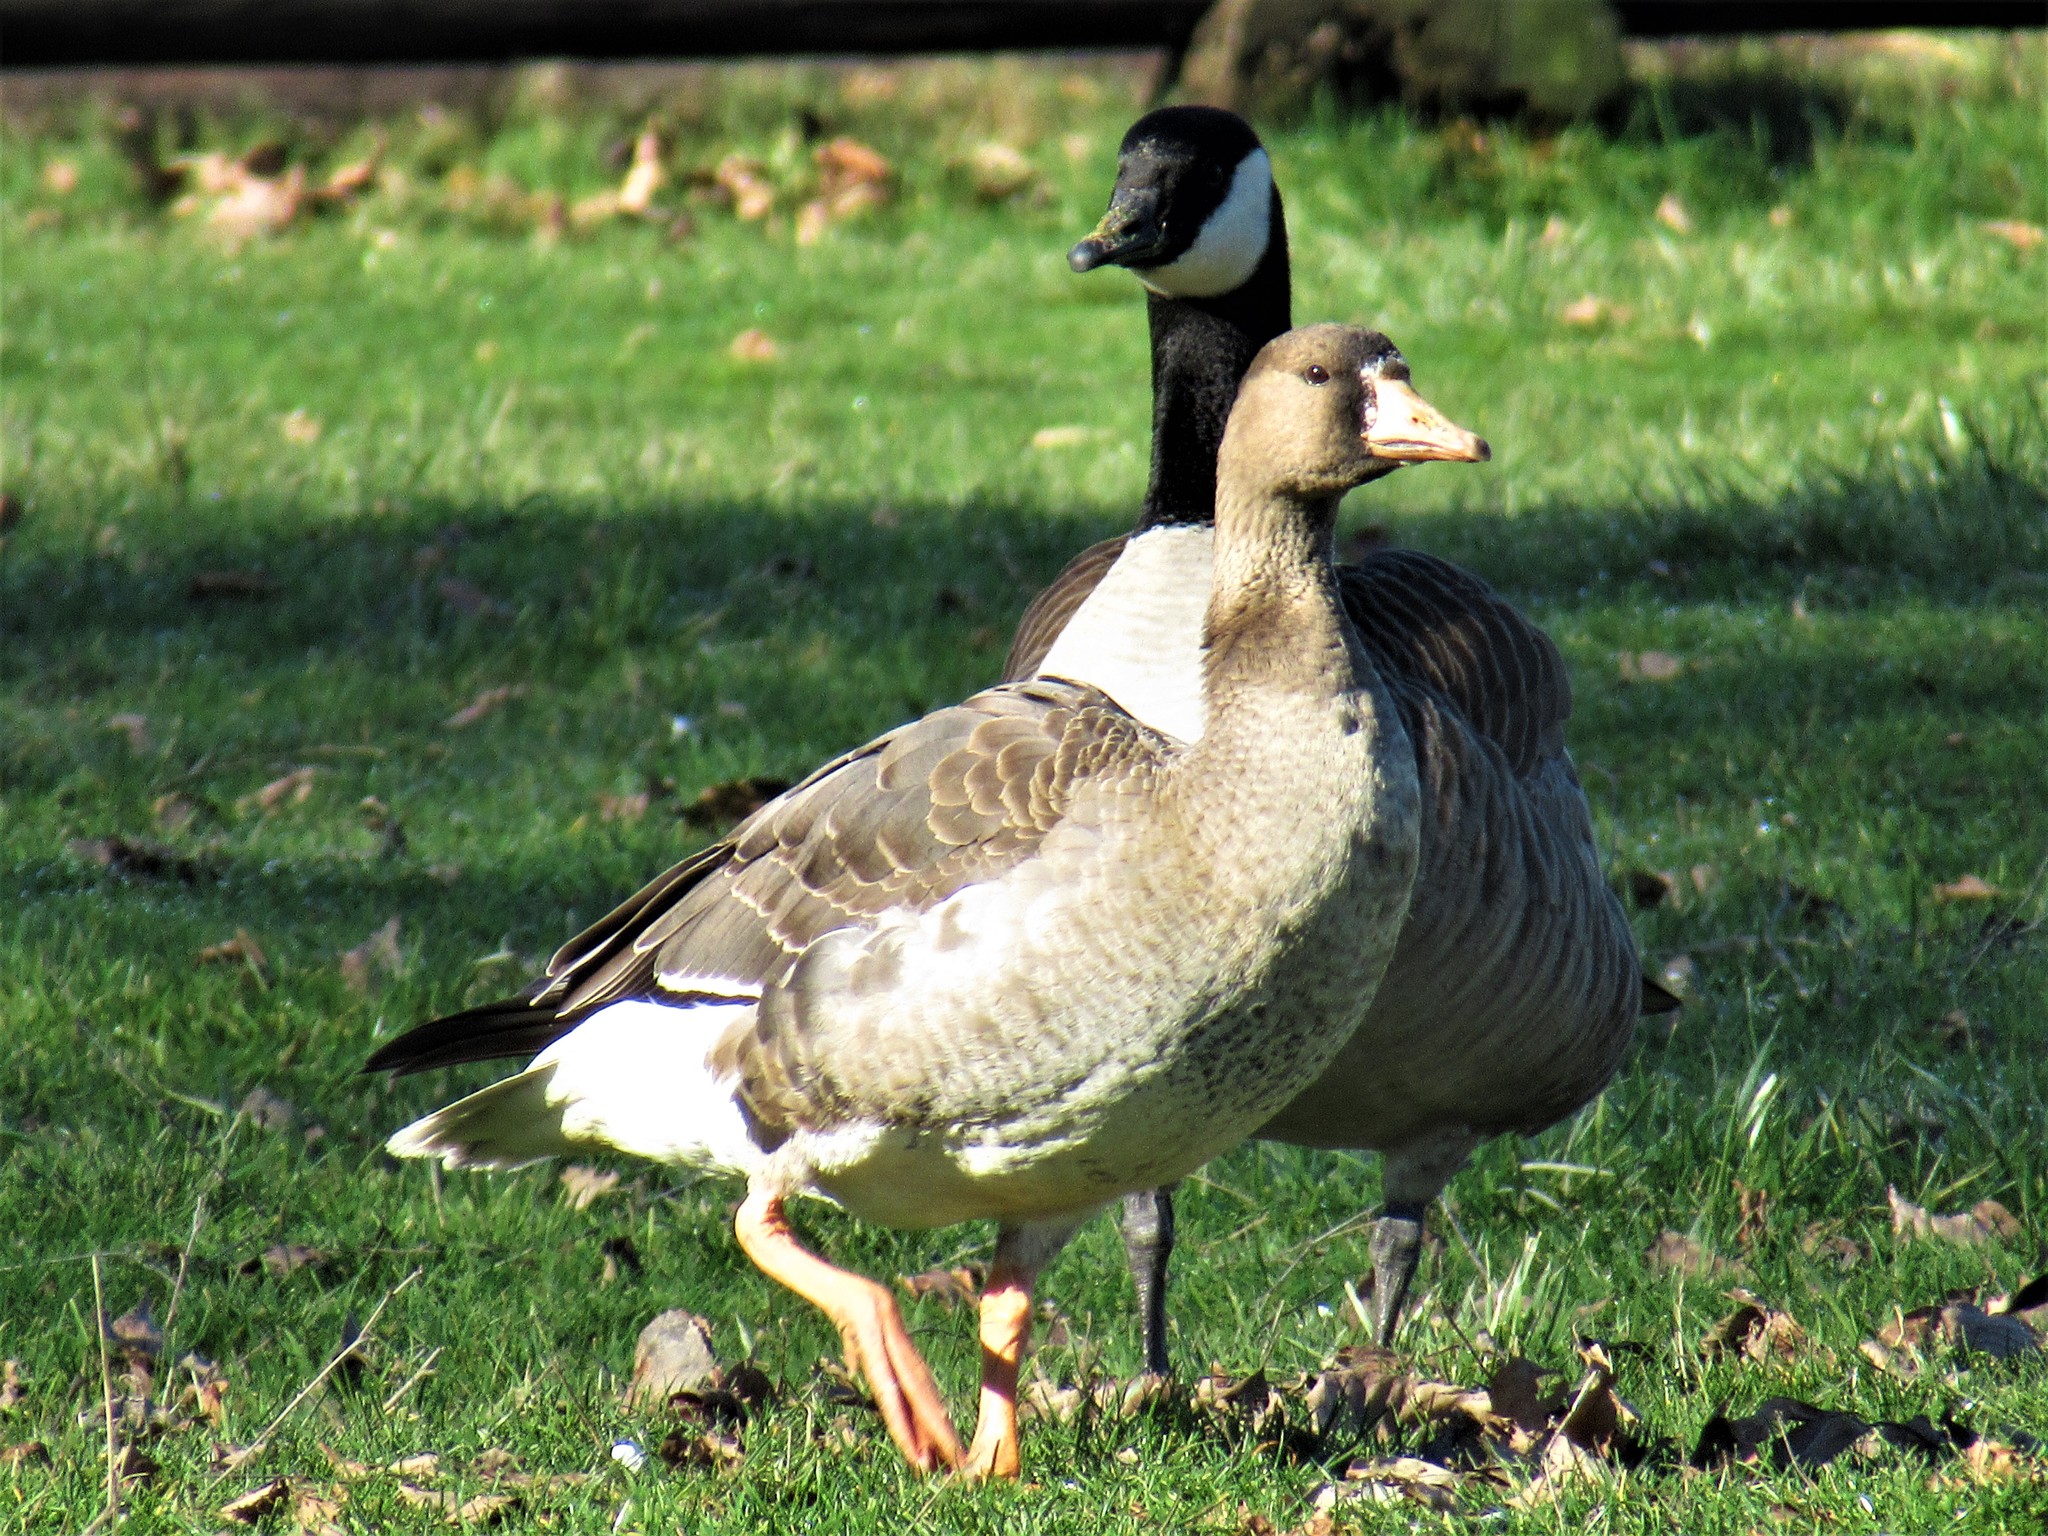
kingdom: Animalia
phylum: Chordata
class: Aves
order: Anseriformes
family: Anatidae
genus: Anser
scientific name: Anser albifrons
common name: Greater white-fronted goose
